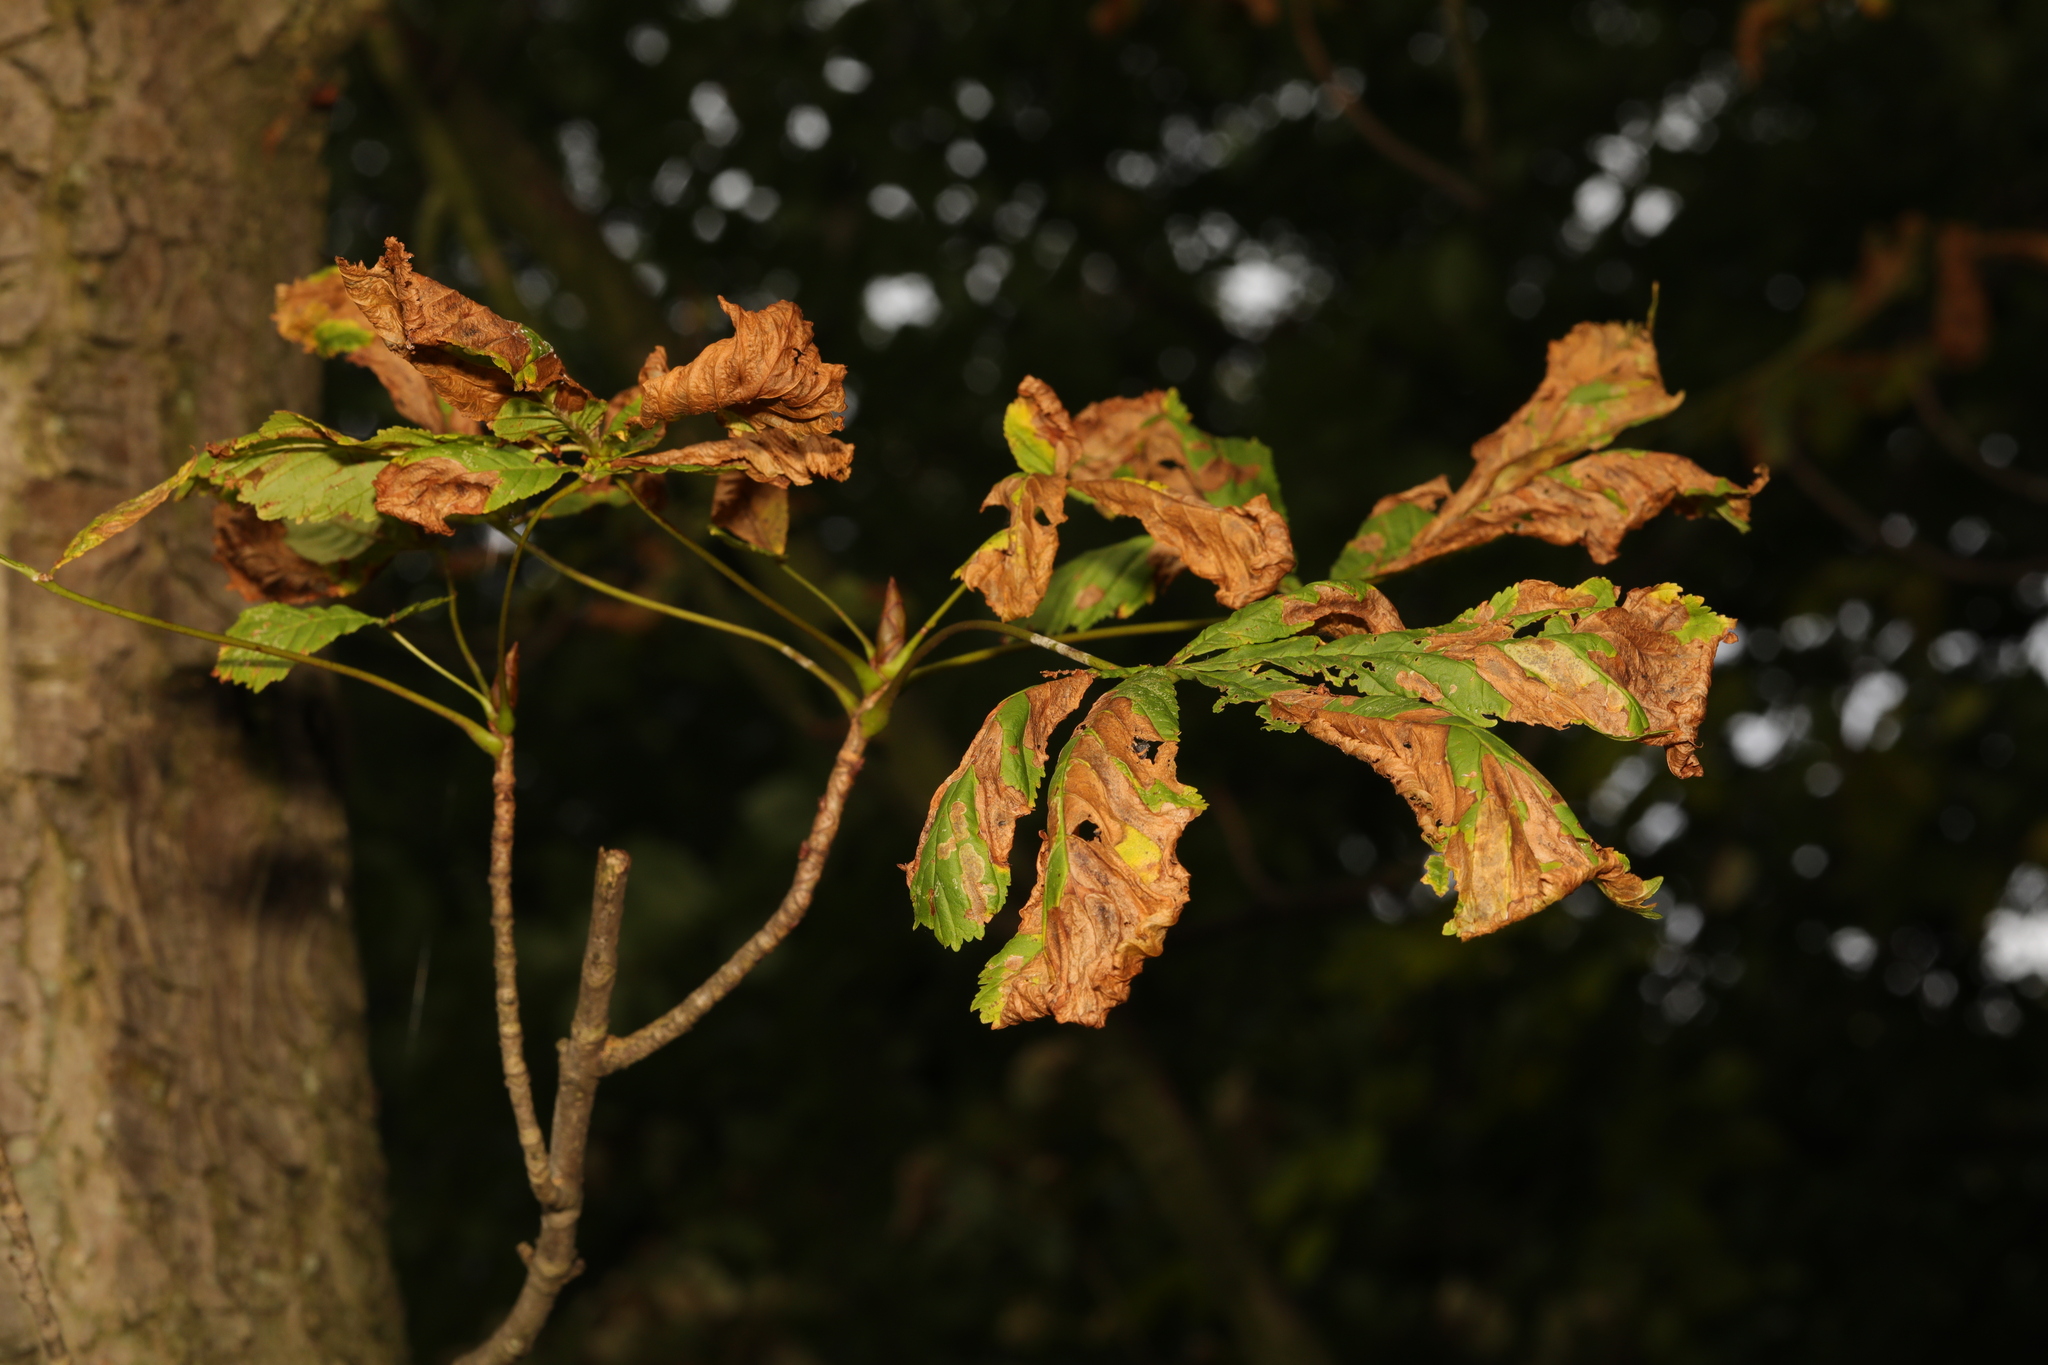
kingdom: Plantae
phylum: Tracheophyta
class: Magnoliopsida
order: Sapindales
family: Sapindaceae
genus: Aesculus
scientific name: Aesculus hippocastanum
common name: Horse-chestnut
